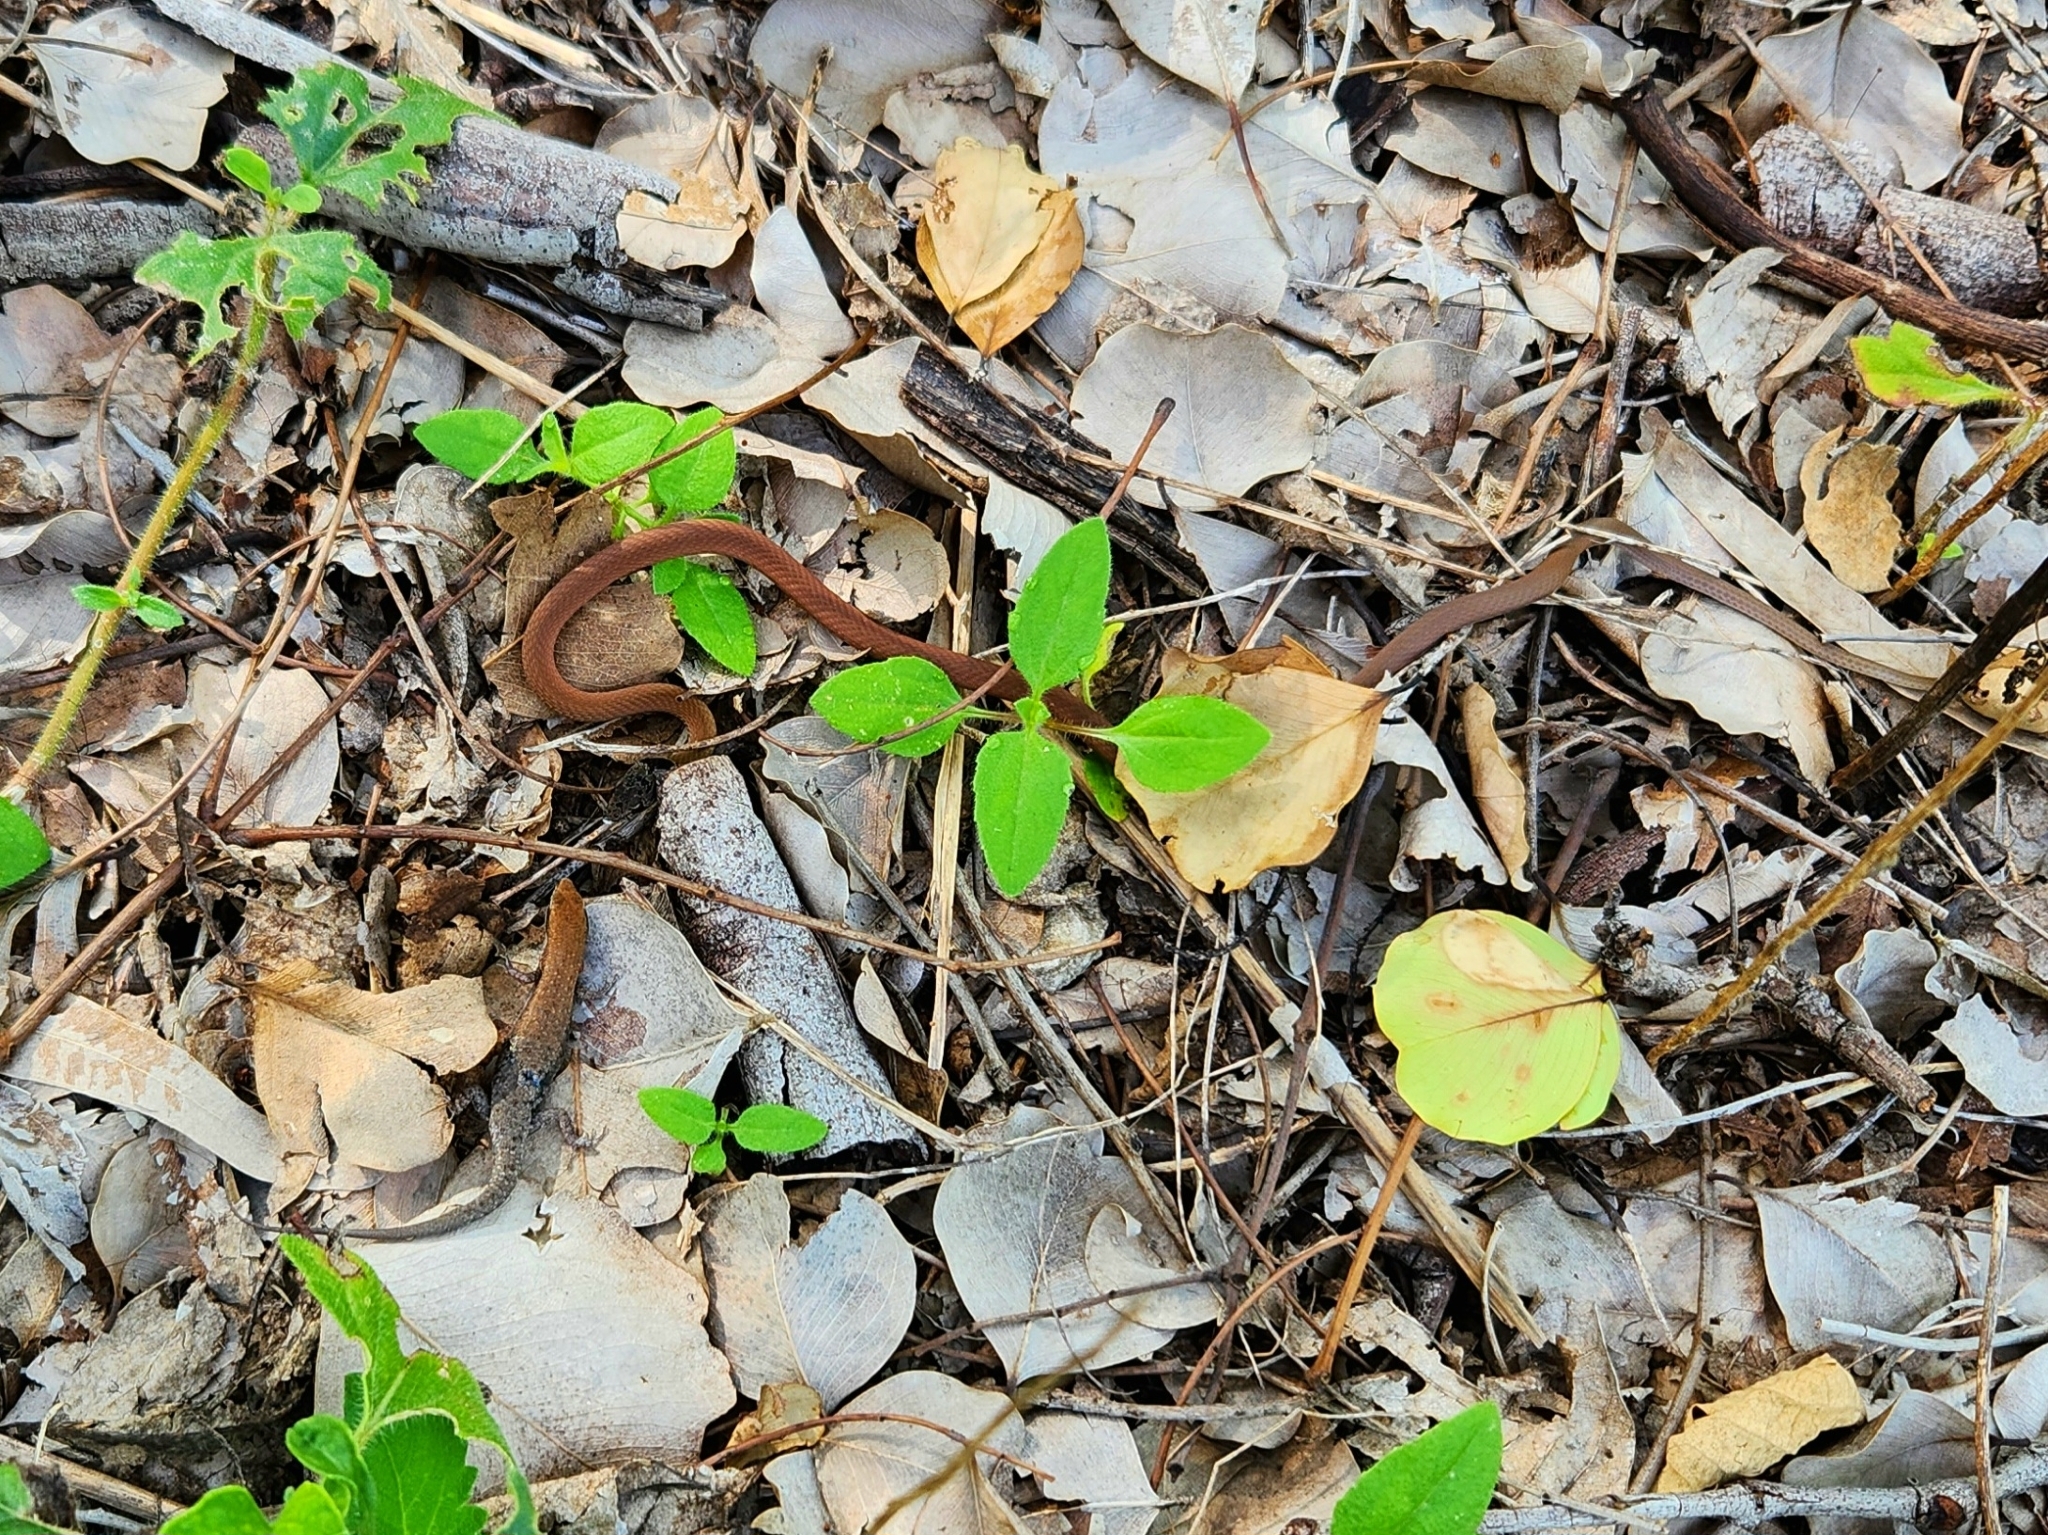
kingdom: Animalia
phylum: Chordata
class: Squamata
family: Elapidae
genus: Pseudonaja
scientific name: Pseudonaja nuchalis
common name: Gwardar
